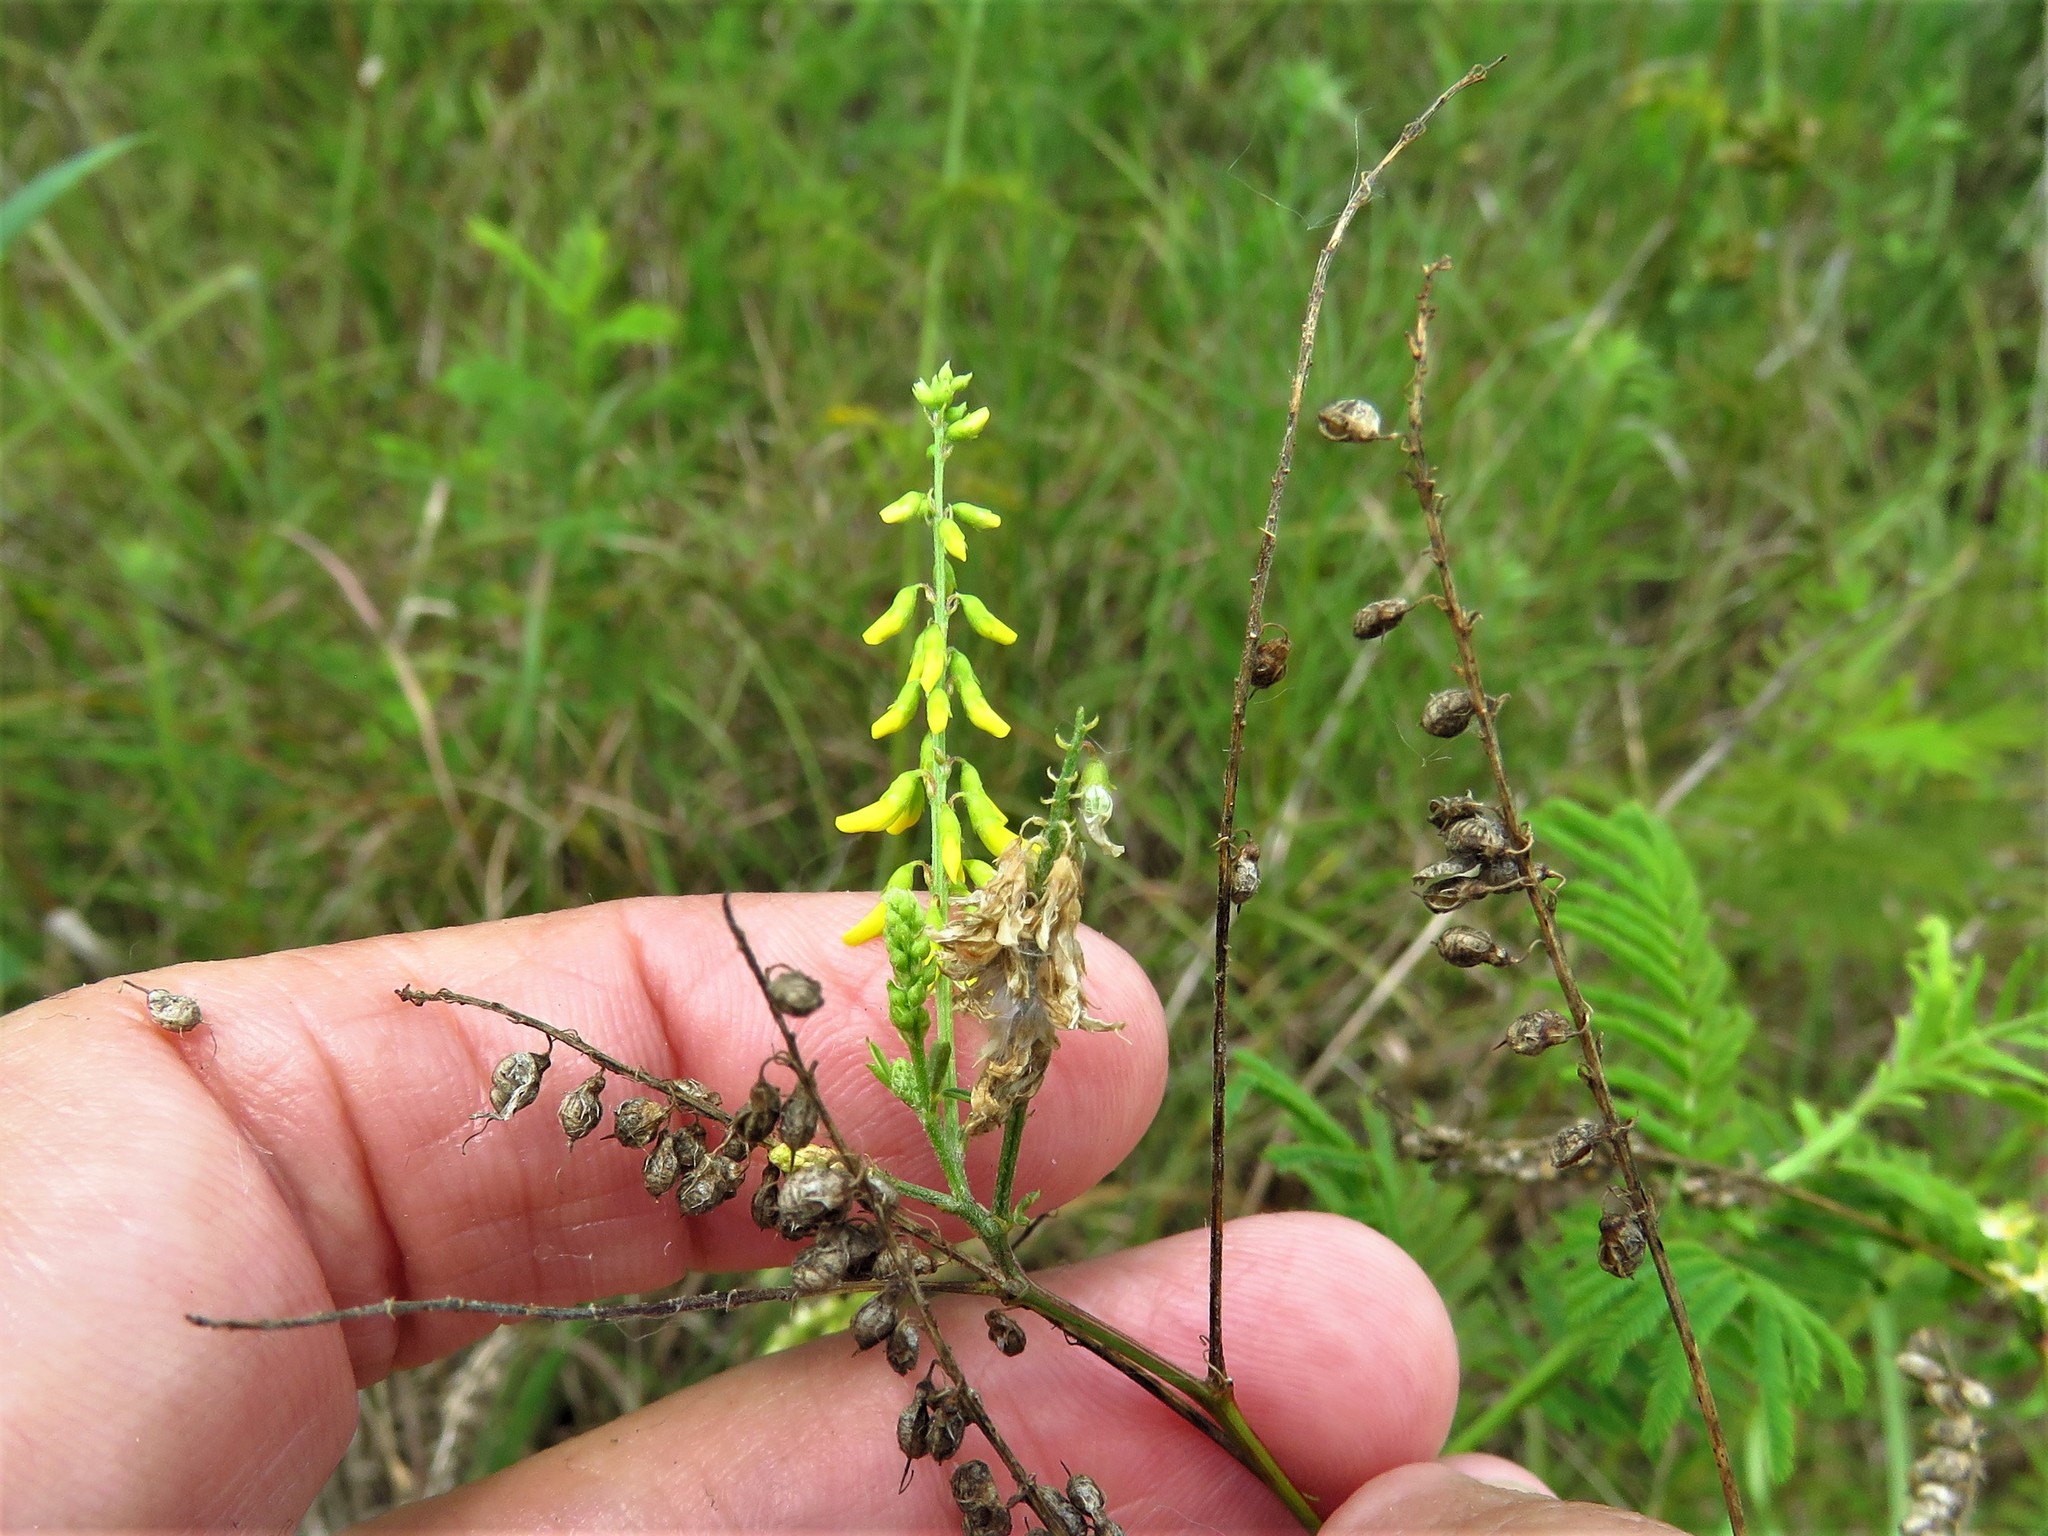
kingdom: Plantae
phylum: Tracheophyta
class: Magnoliopsida
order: Fabales
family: Fabaceae
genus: Melilotus
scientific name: Melilotus officinalis
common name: Sweetclover
